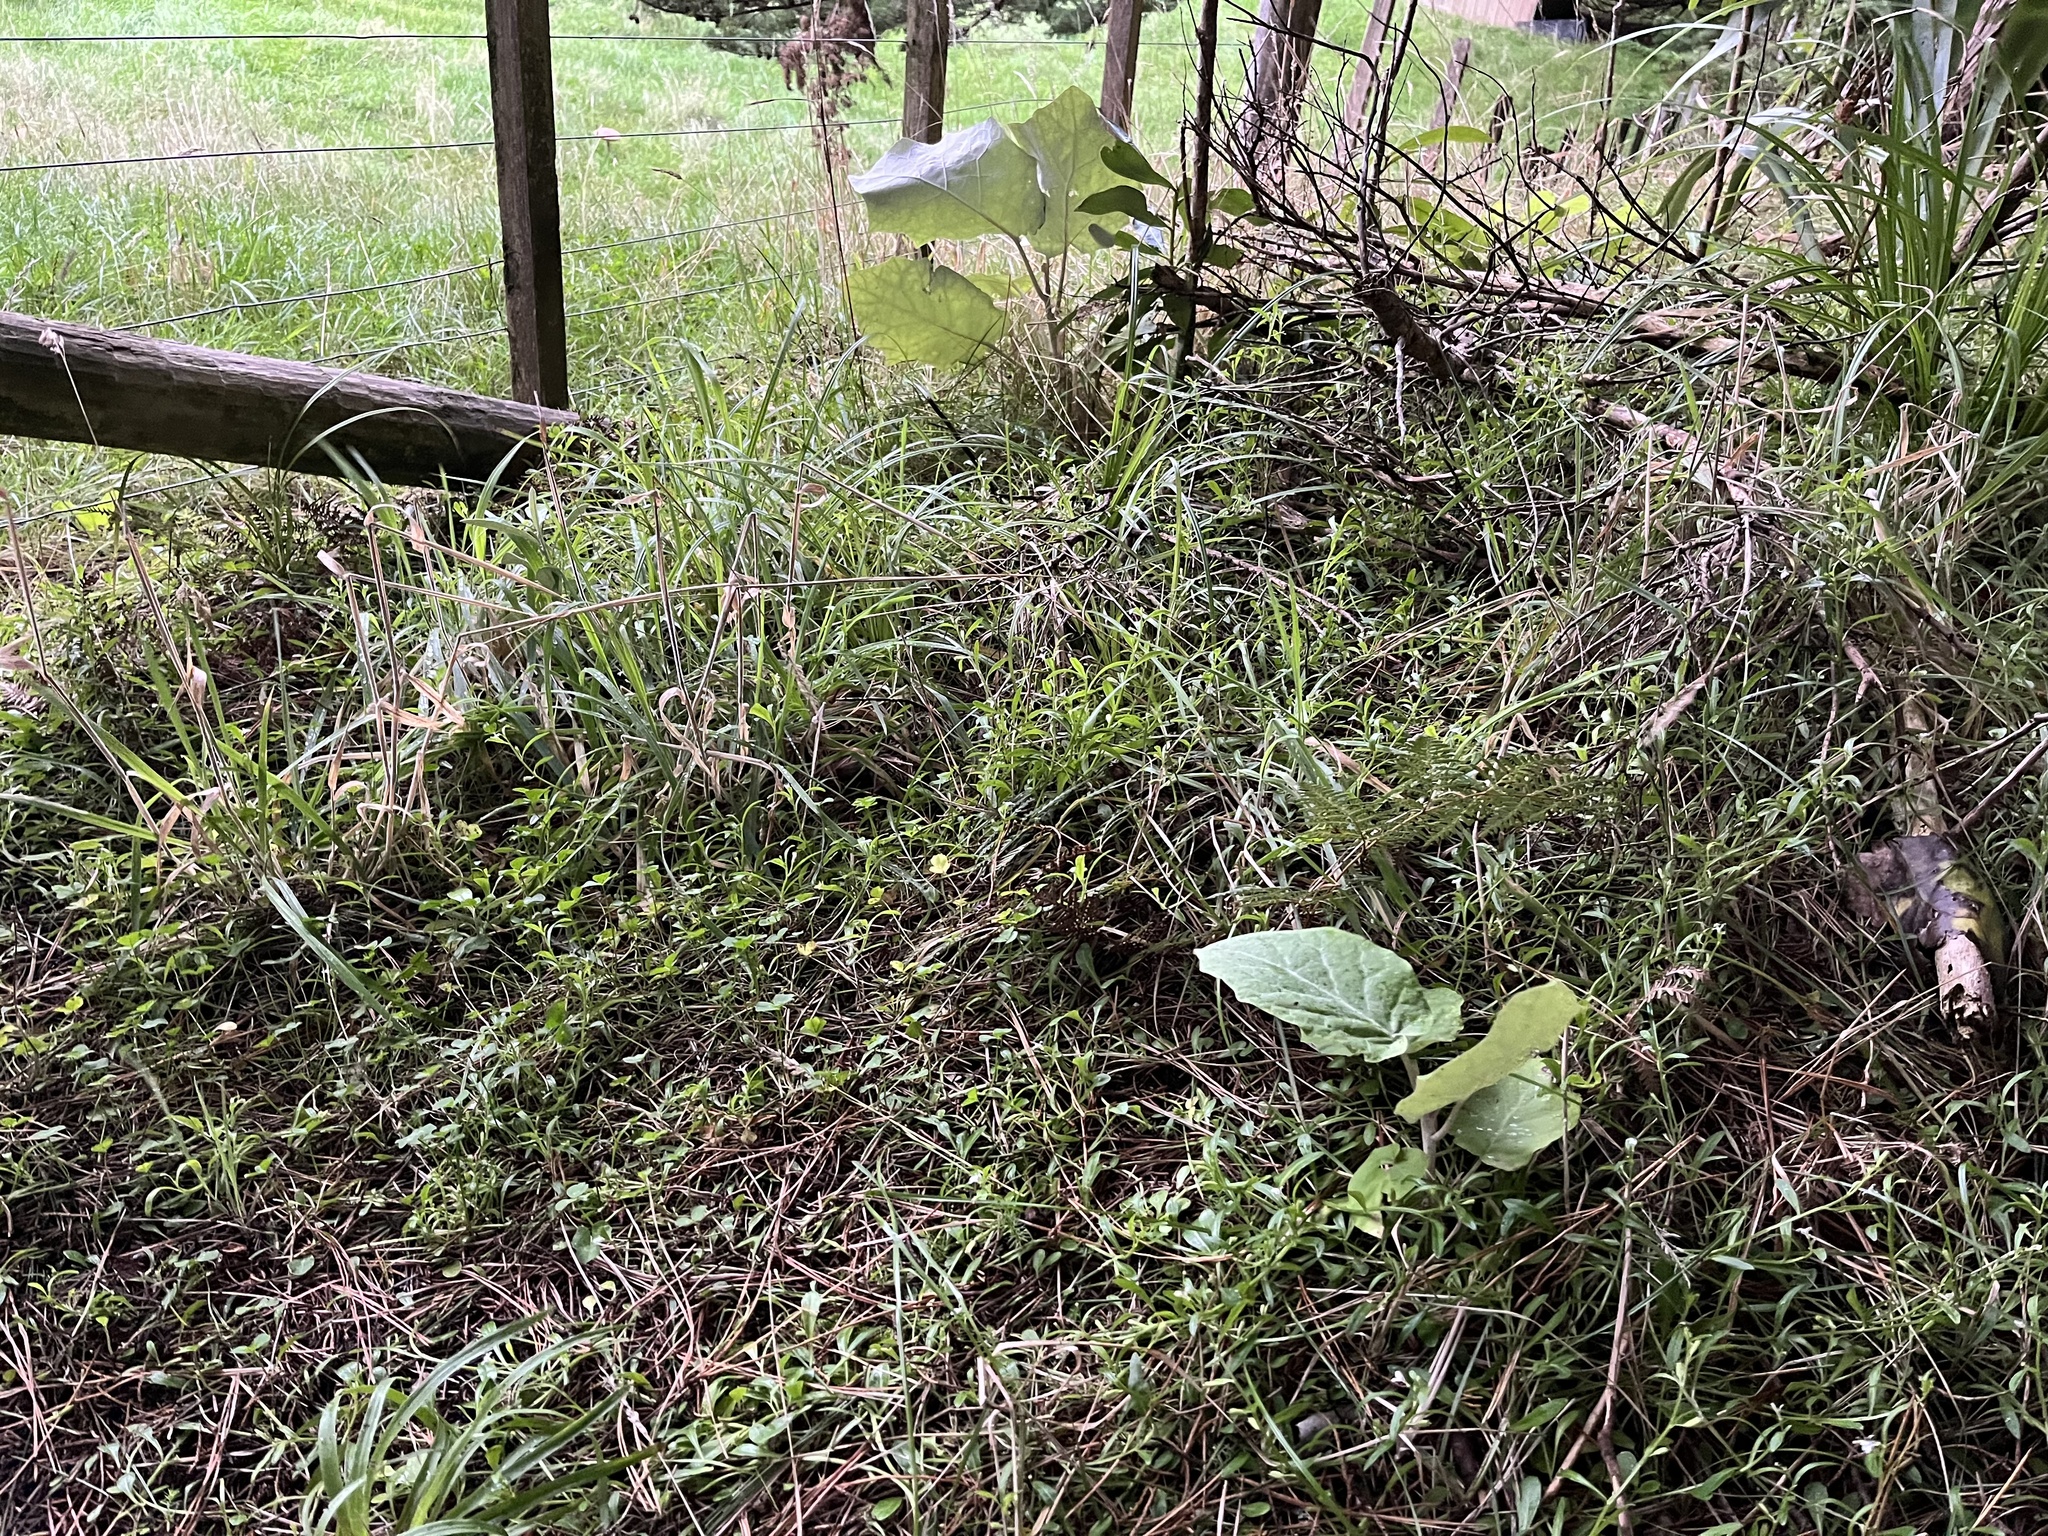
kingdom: Plantae
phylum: Tracheophyta
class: Magnoliopsida
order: Asterales
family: Asteraceae
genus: Brachyglottis
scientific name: Brachyglottis repanda
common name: Hedge ragwort
